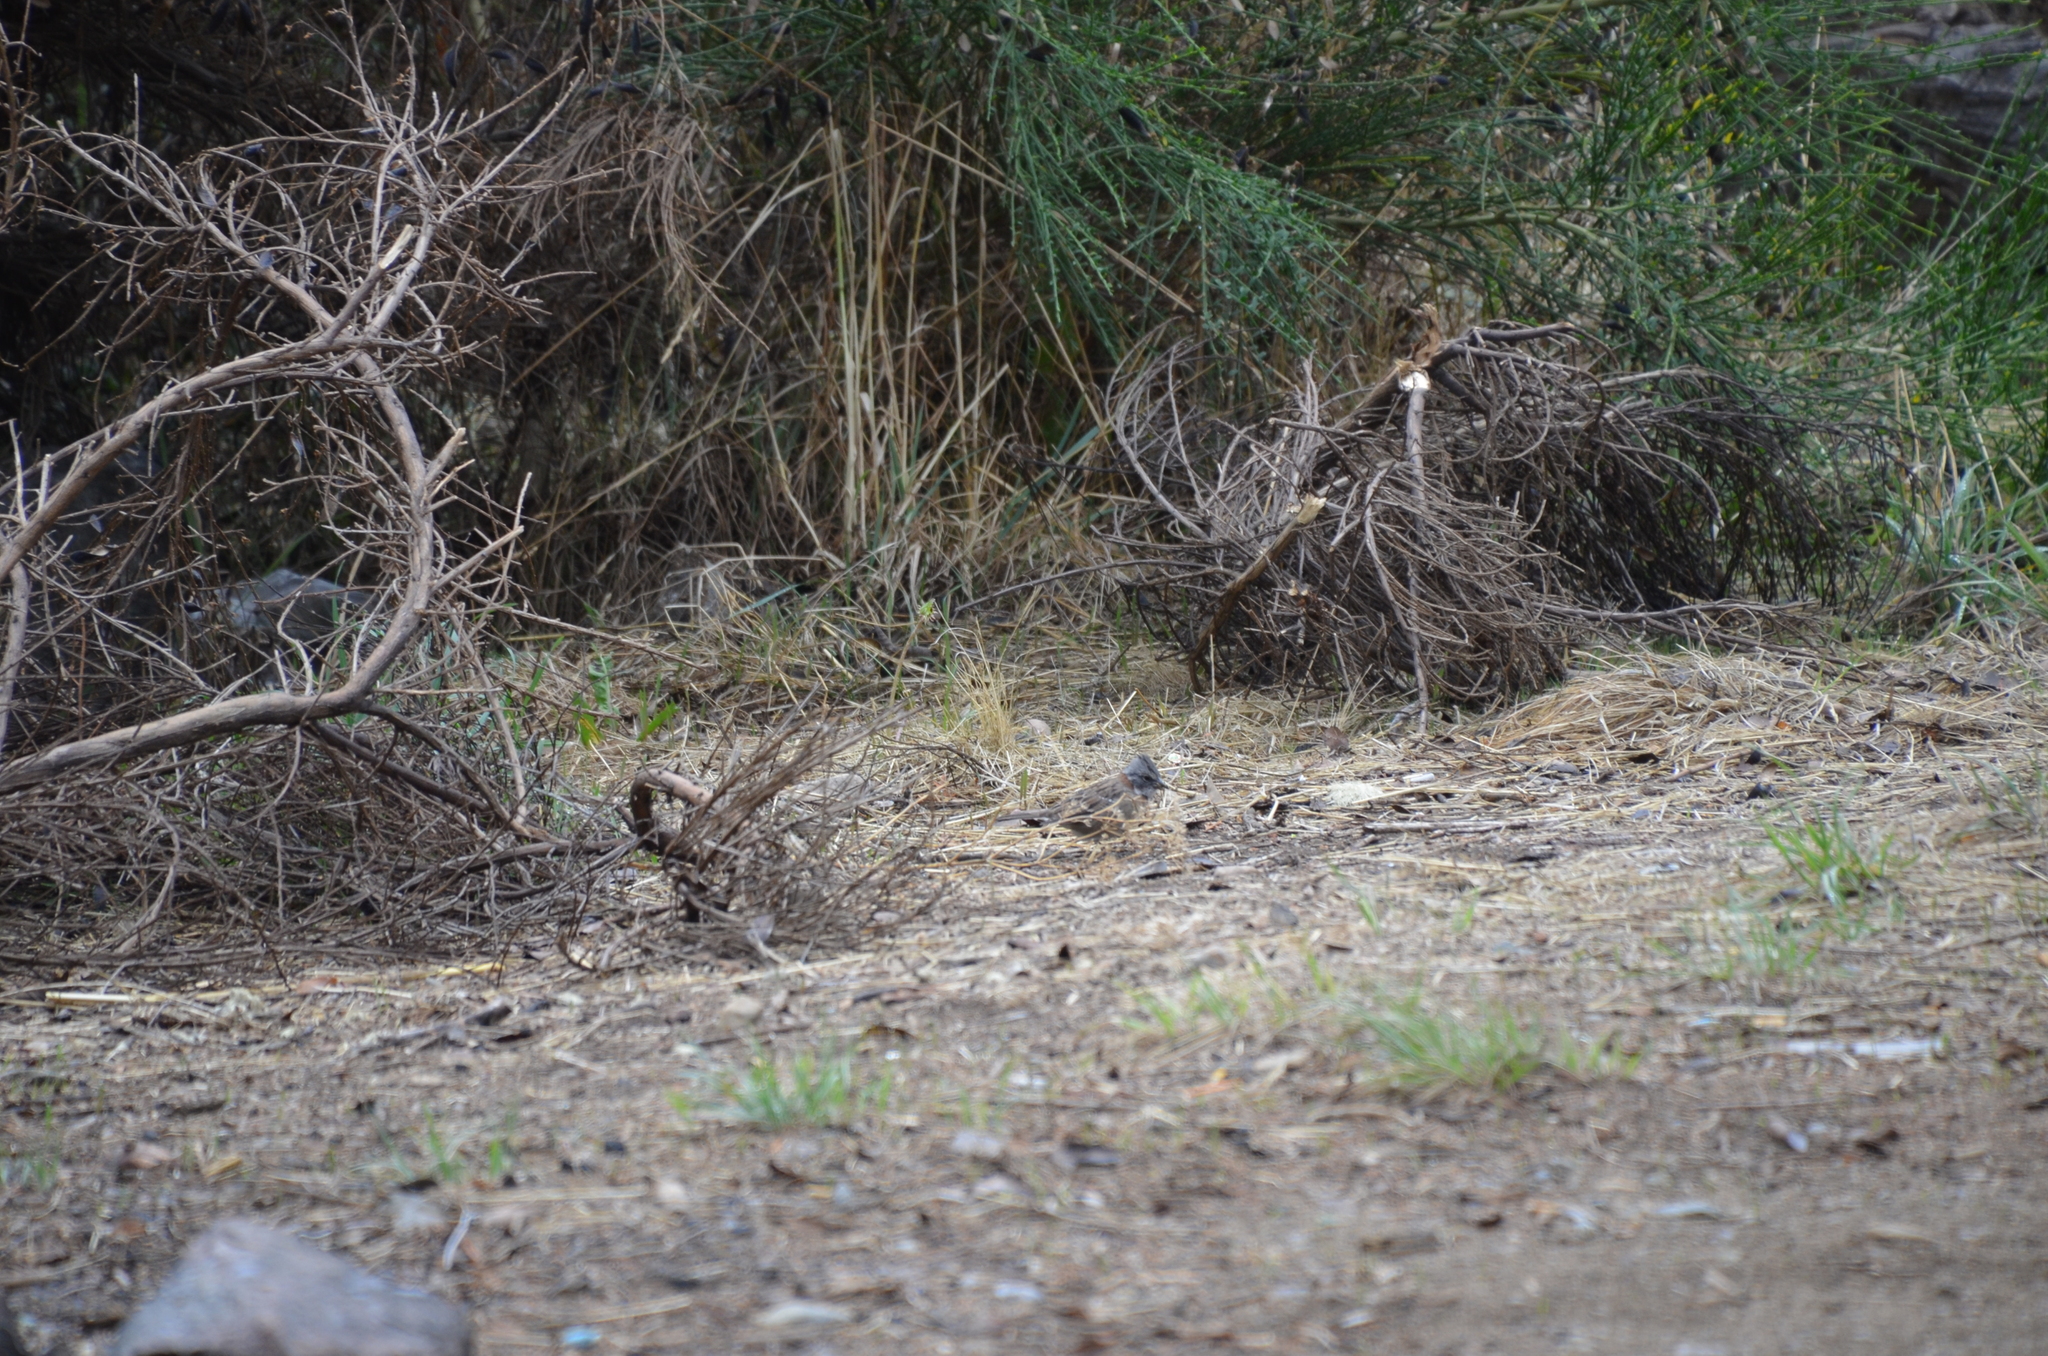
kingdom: Animalia
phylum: Chordata
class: Aves
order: Passeriformes
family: Passerellidae
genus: Zonotrichia
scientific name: Zonotrichia capensis
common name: Rufous-collared sparrow
